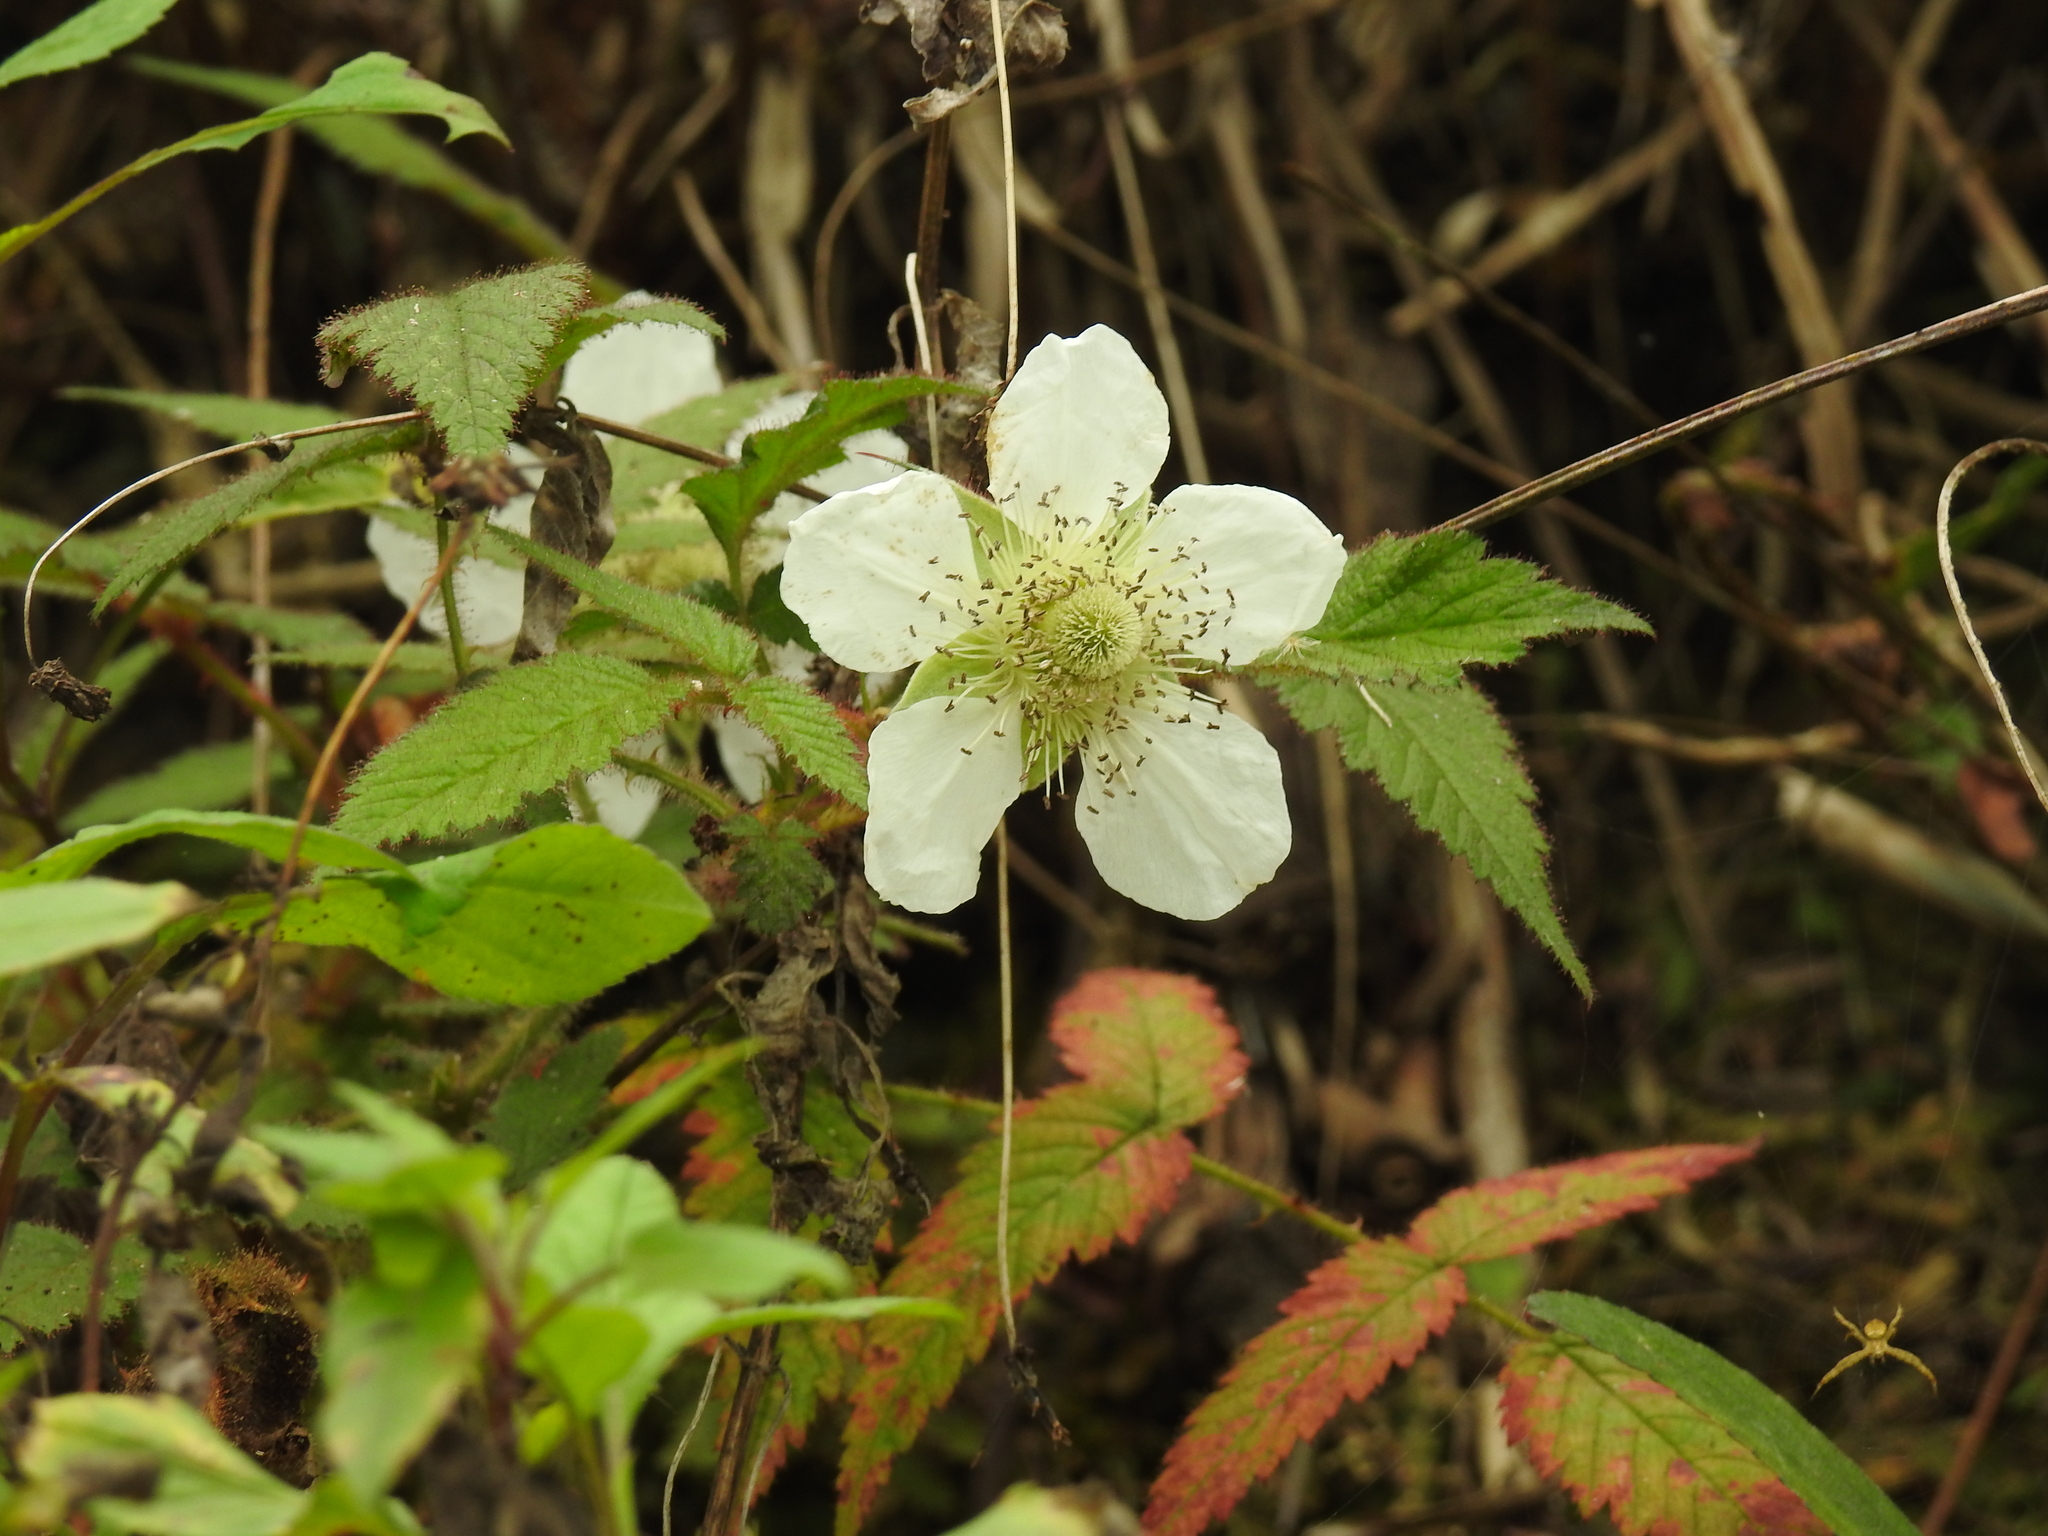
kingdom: Plantae
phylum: Tracheophyta
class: Magnoliopsida
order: Rosales
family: Rosaceae
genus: Rubus
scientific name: Rubus croceacanthus
